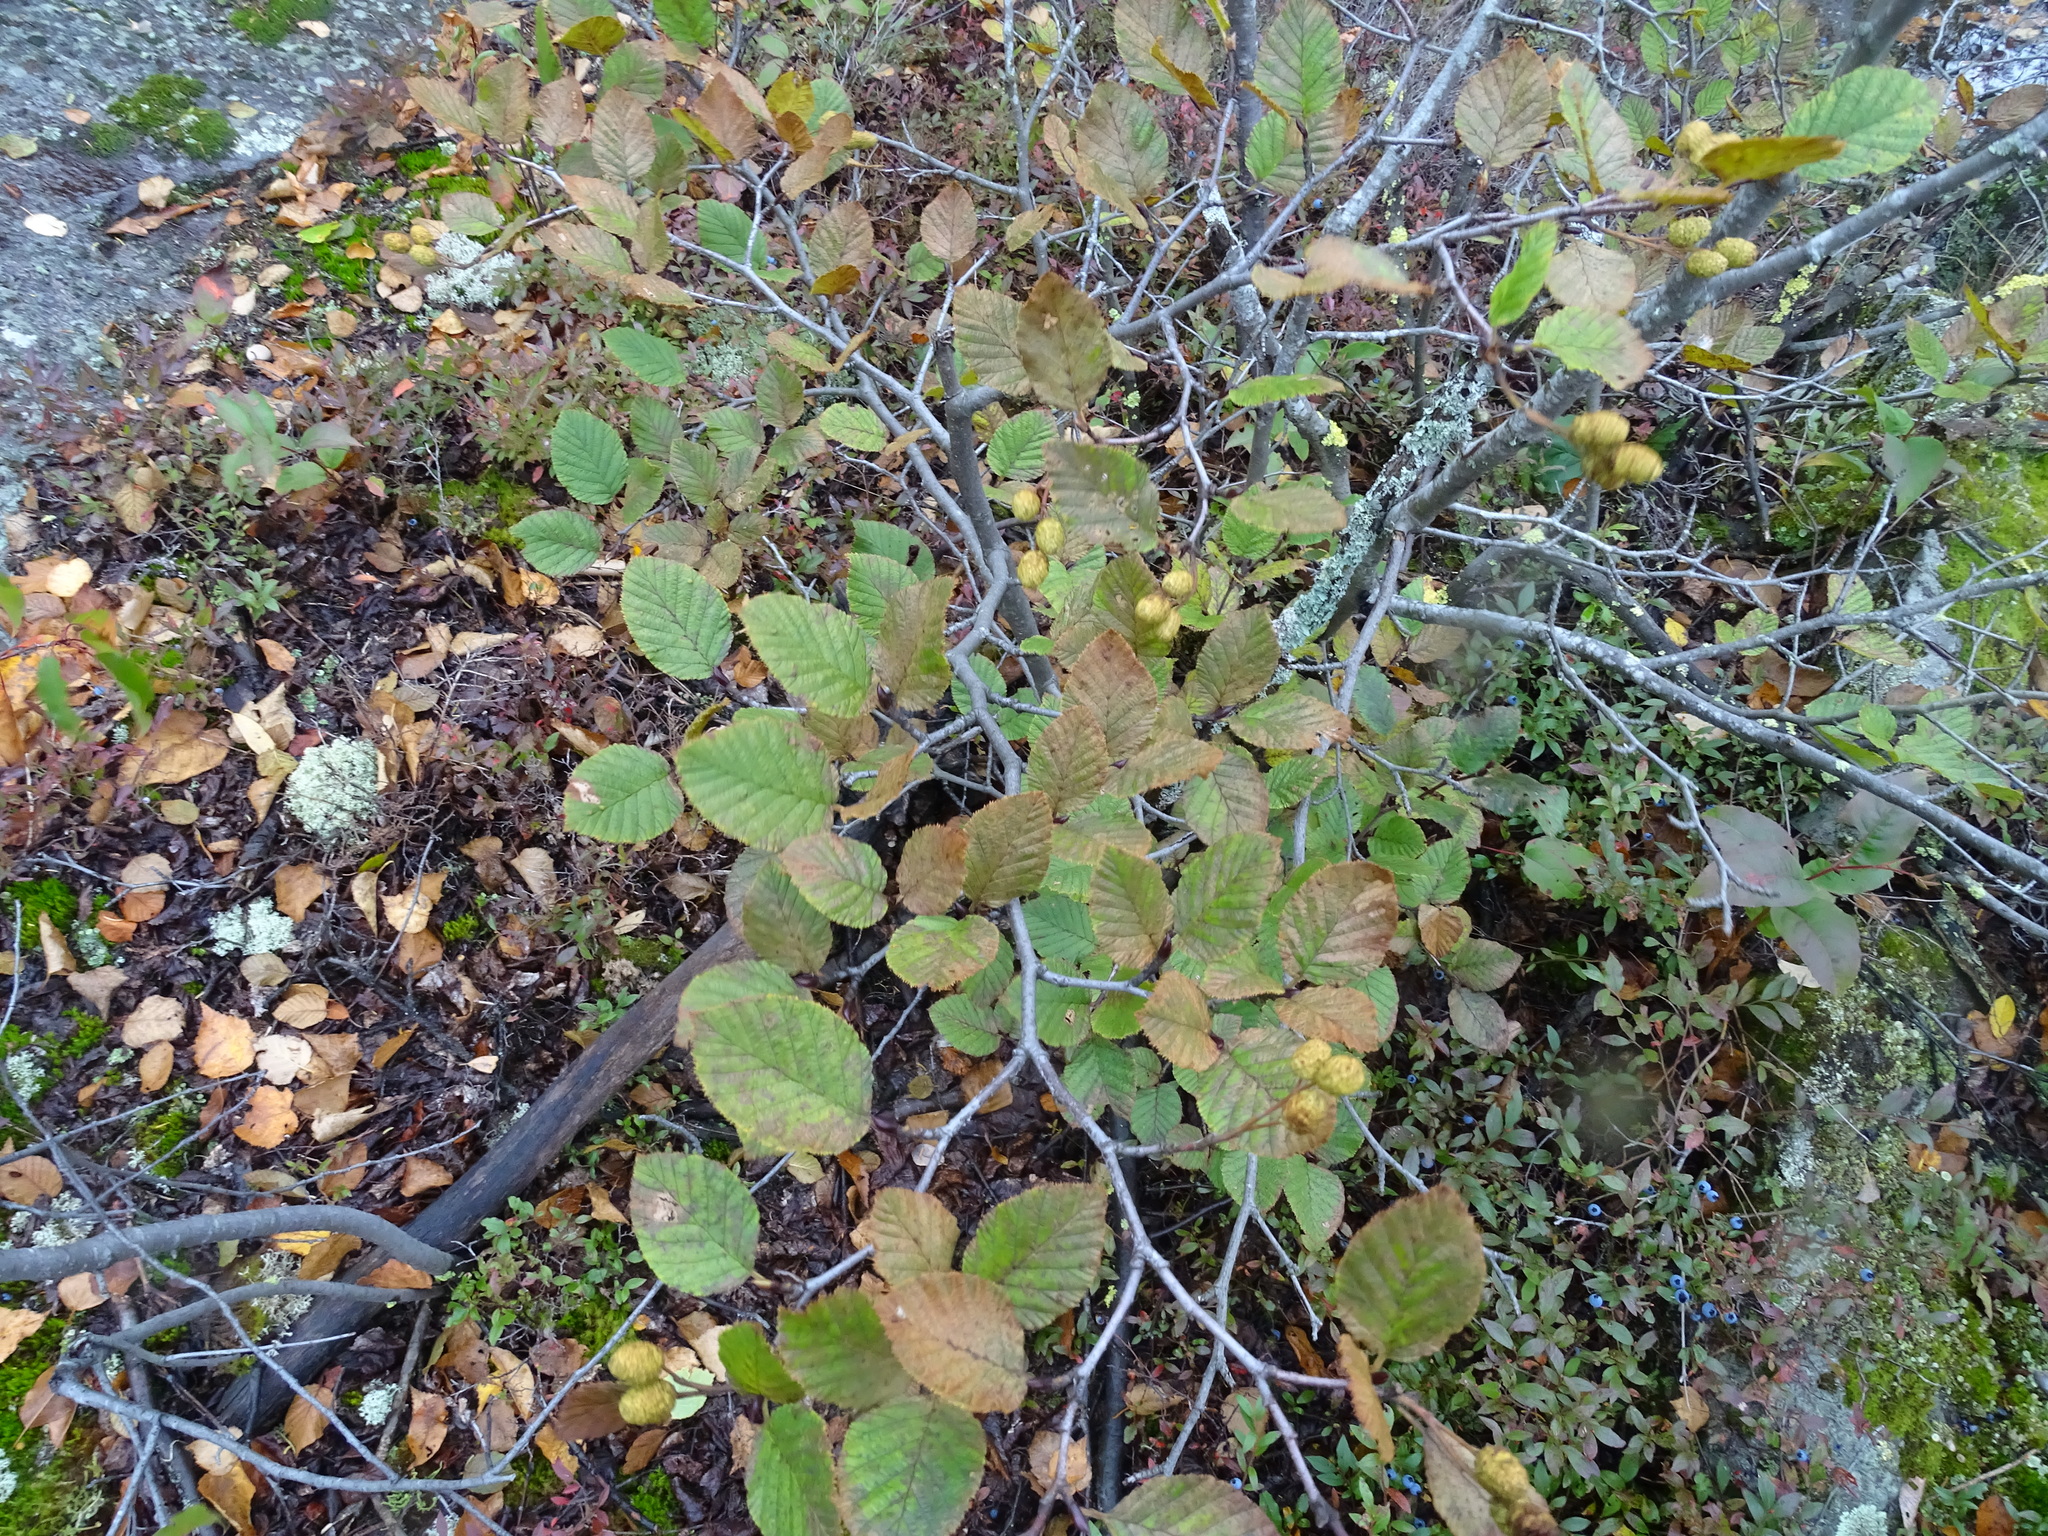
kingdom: Plantae
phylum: Tracheophyta
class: Magnoliopsida
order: Fagales
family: Betulaceae
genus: Alnus
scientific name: Alnus alnobetula
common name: Green alder
